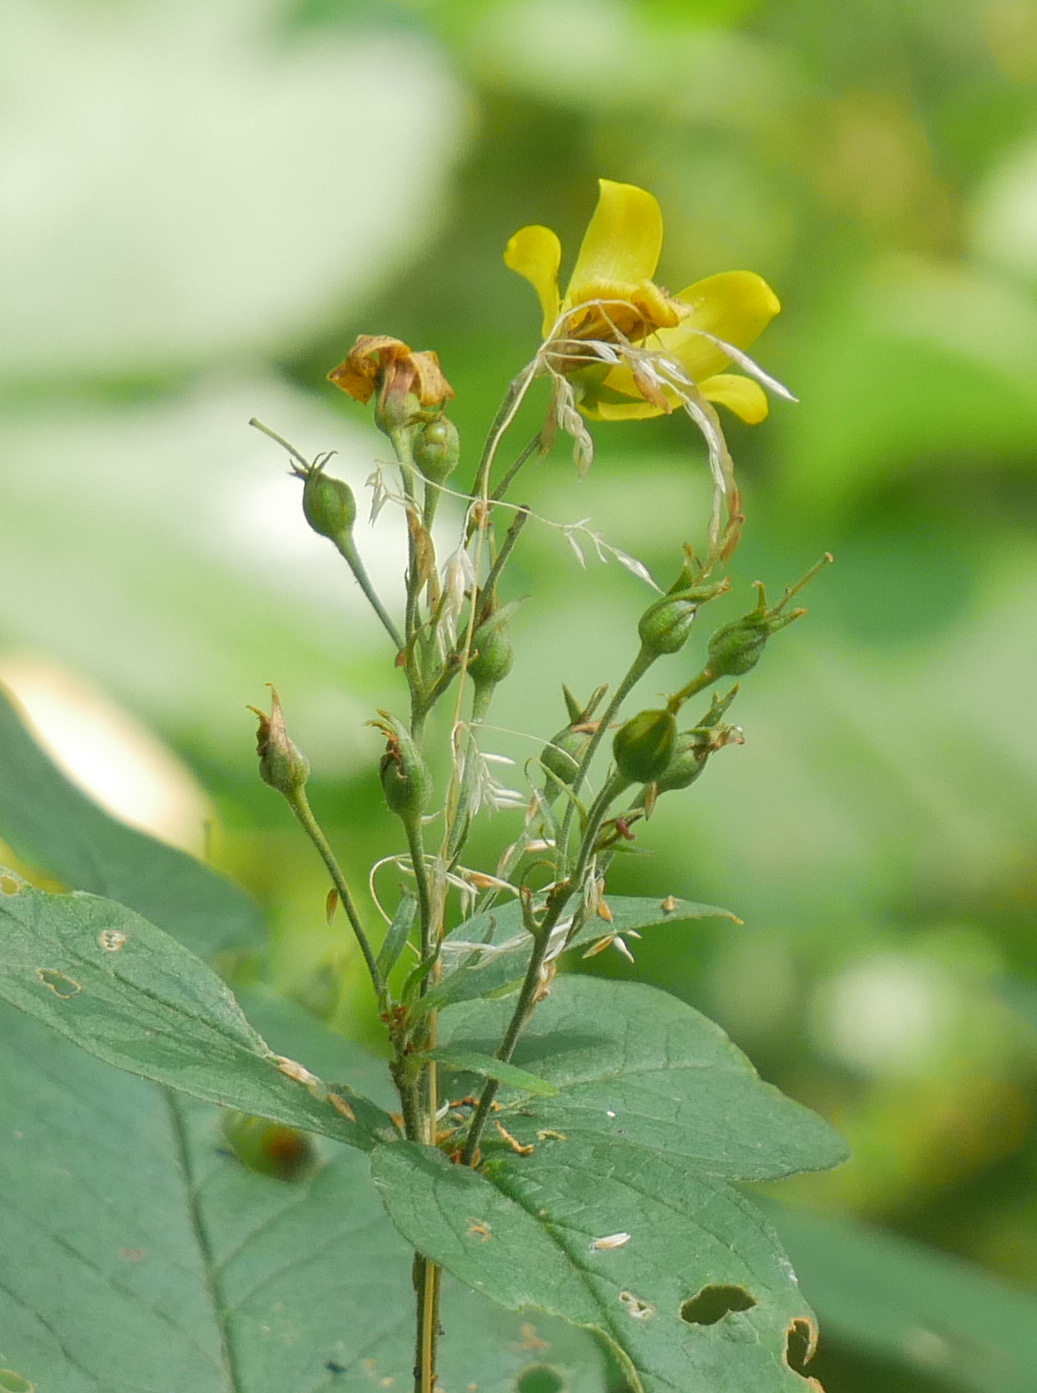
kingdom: Plantae
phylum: Tracheophyta
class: Magnoliopsida
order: Ericales
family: Primulaceae
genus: Lysimachia
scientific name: Lysimachia vulgaris
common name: Yellow loosestrife
